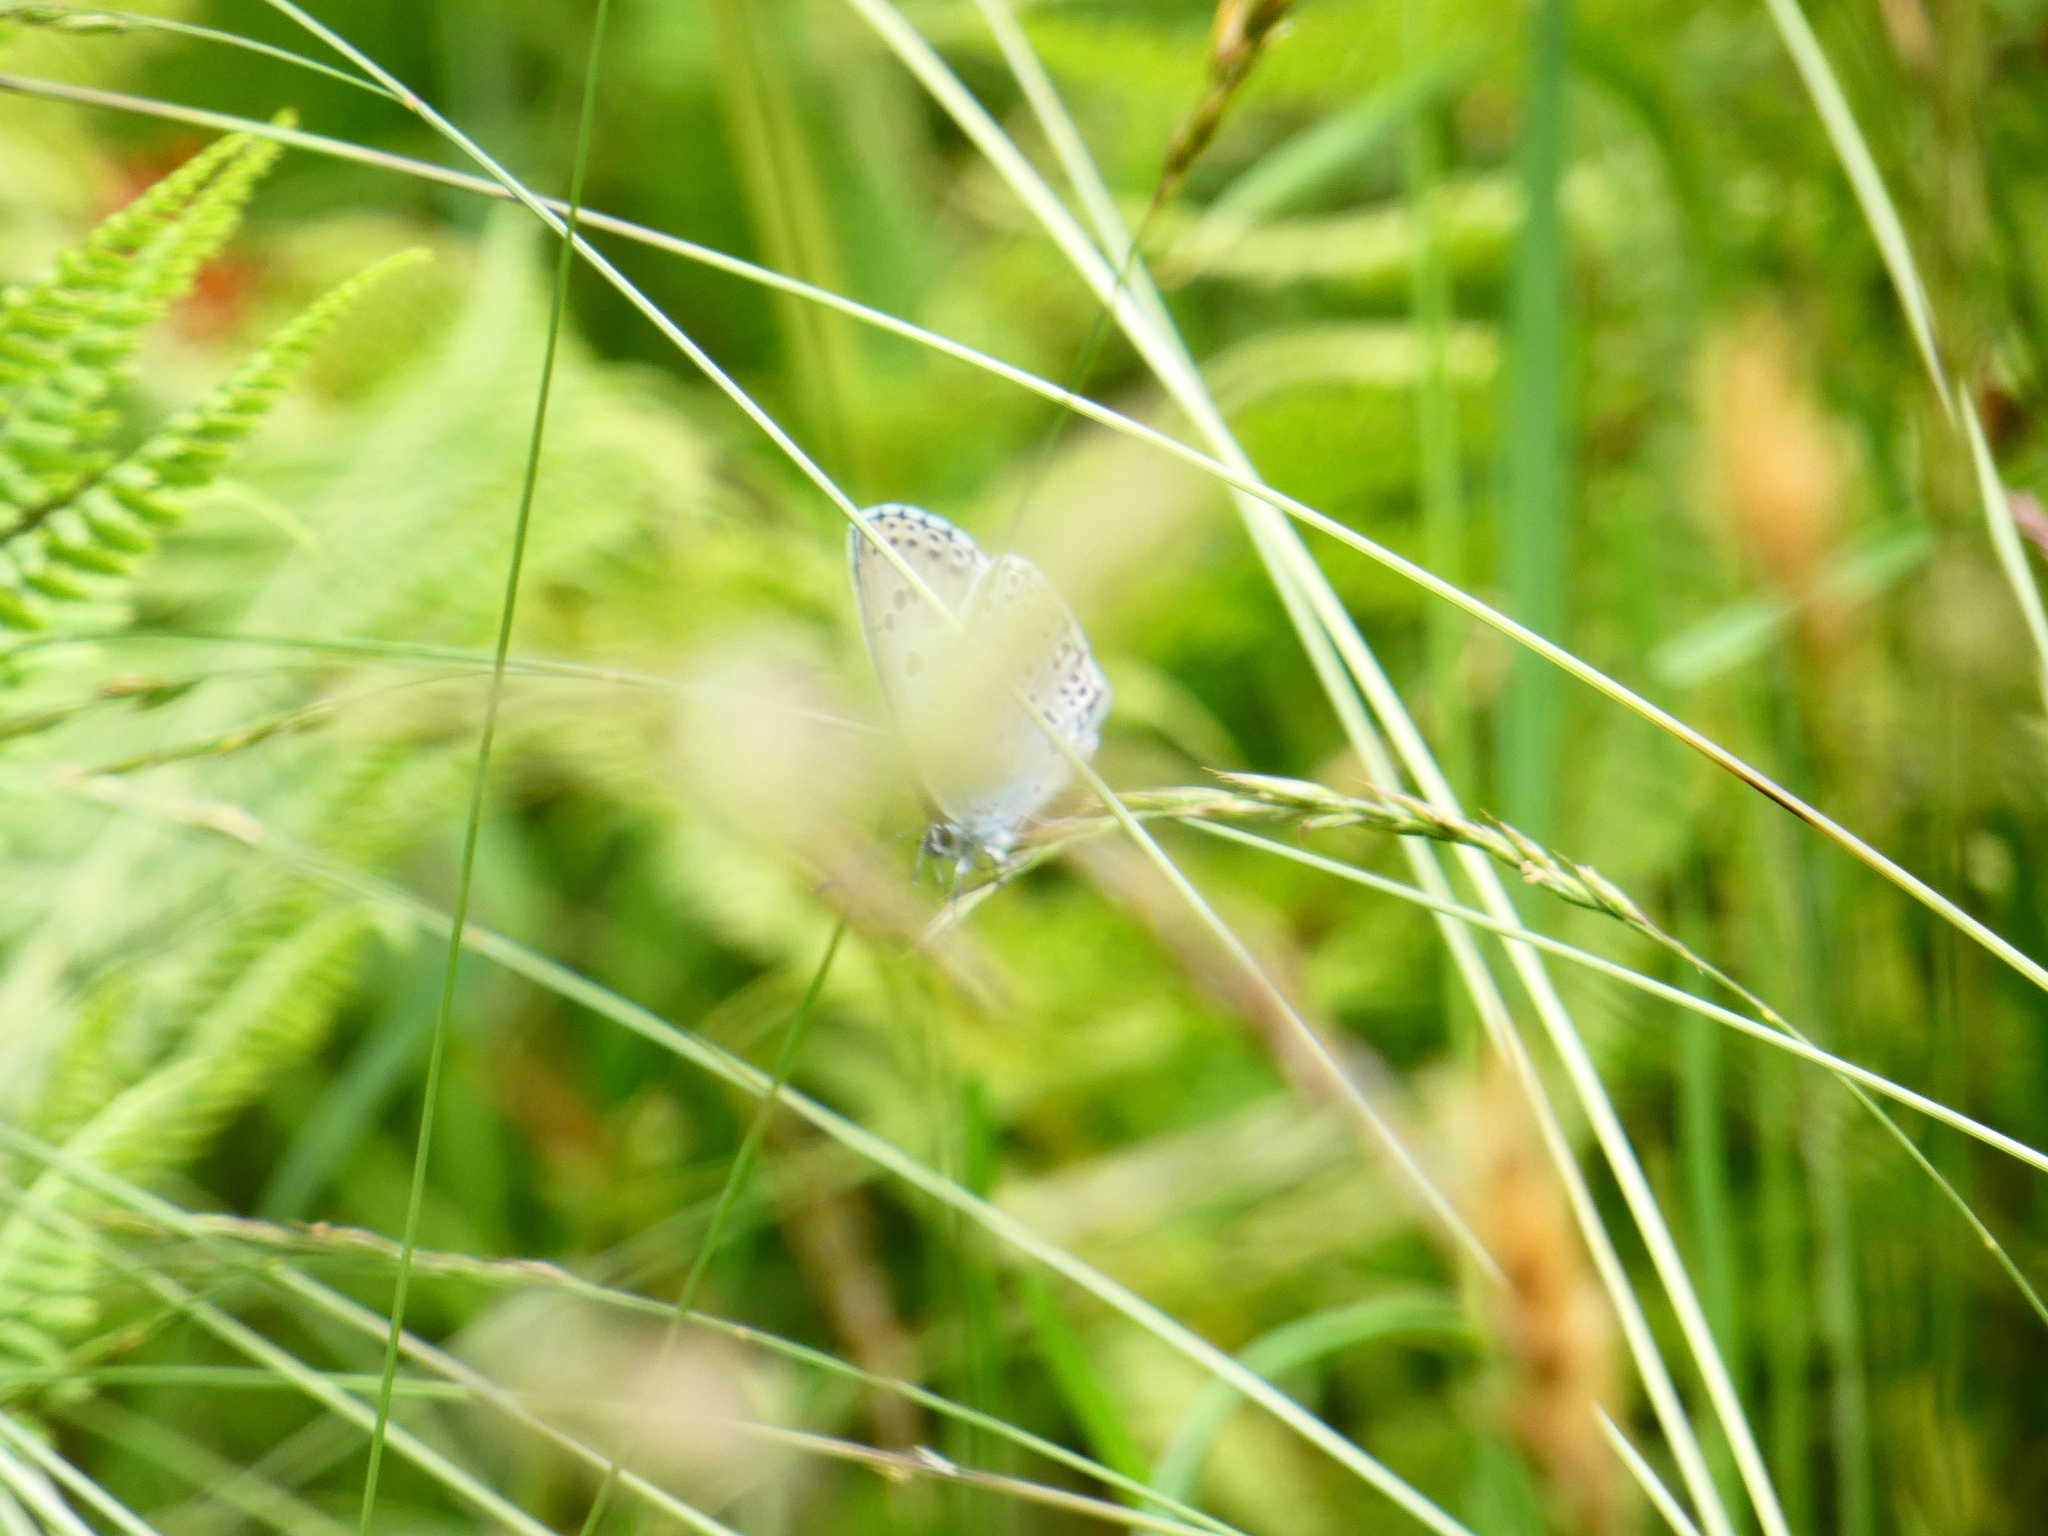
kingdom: Animalia
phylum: Arthropoda
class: Insecta
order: Lepidoptera
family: Lycaenidae
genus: Maculinea
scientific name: Maculinea arion
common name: Large blue
